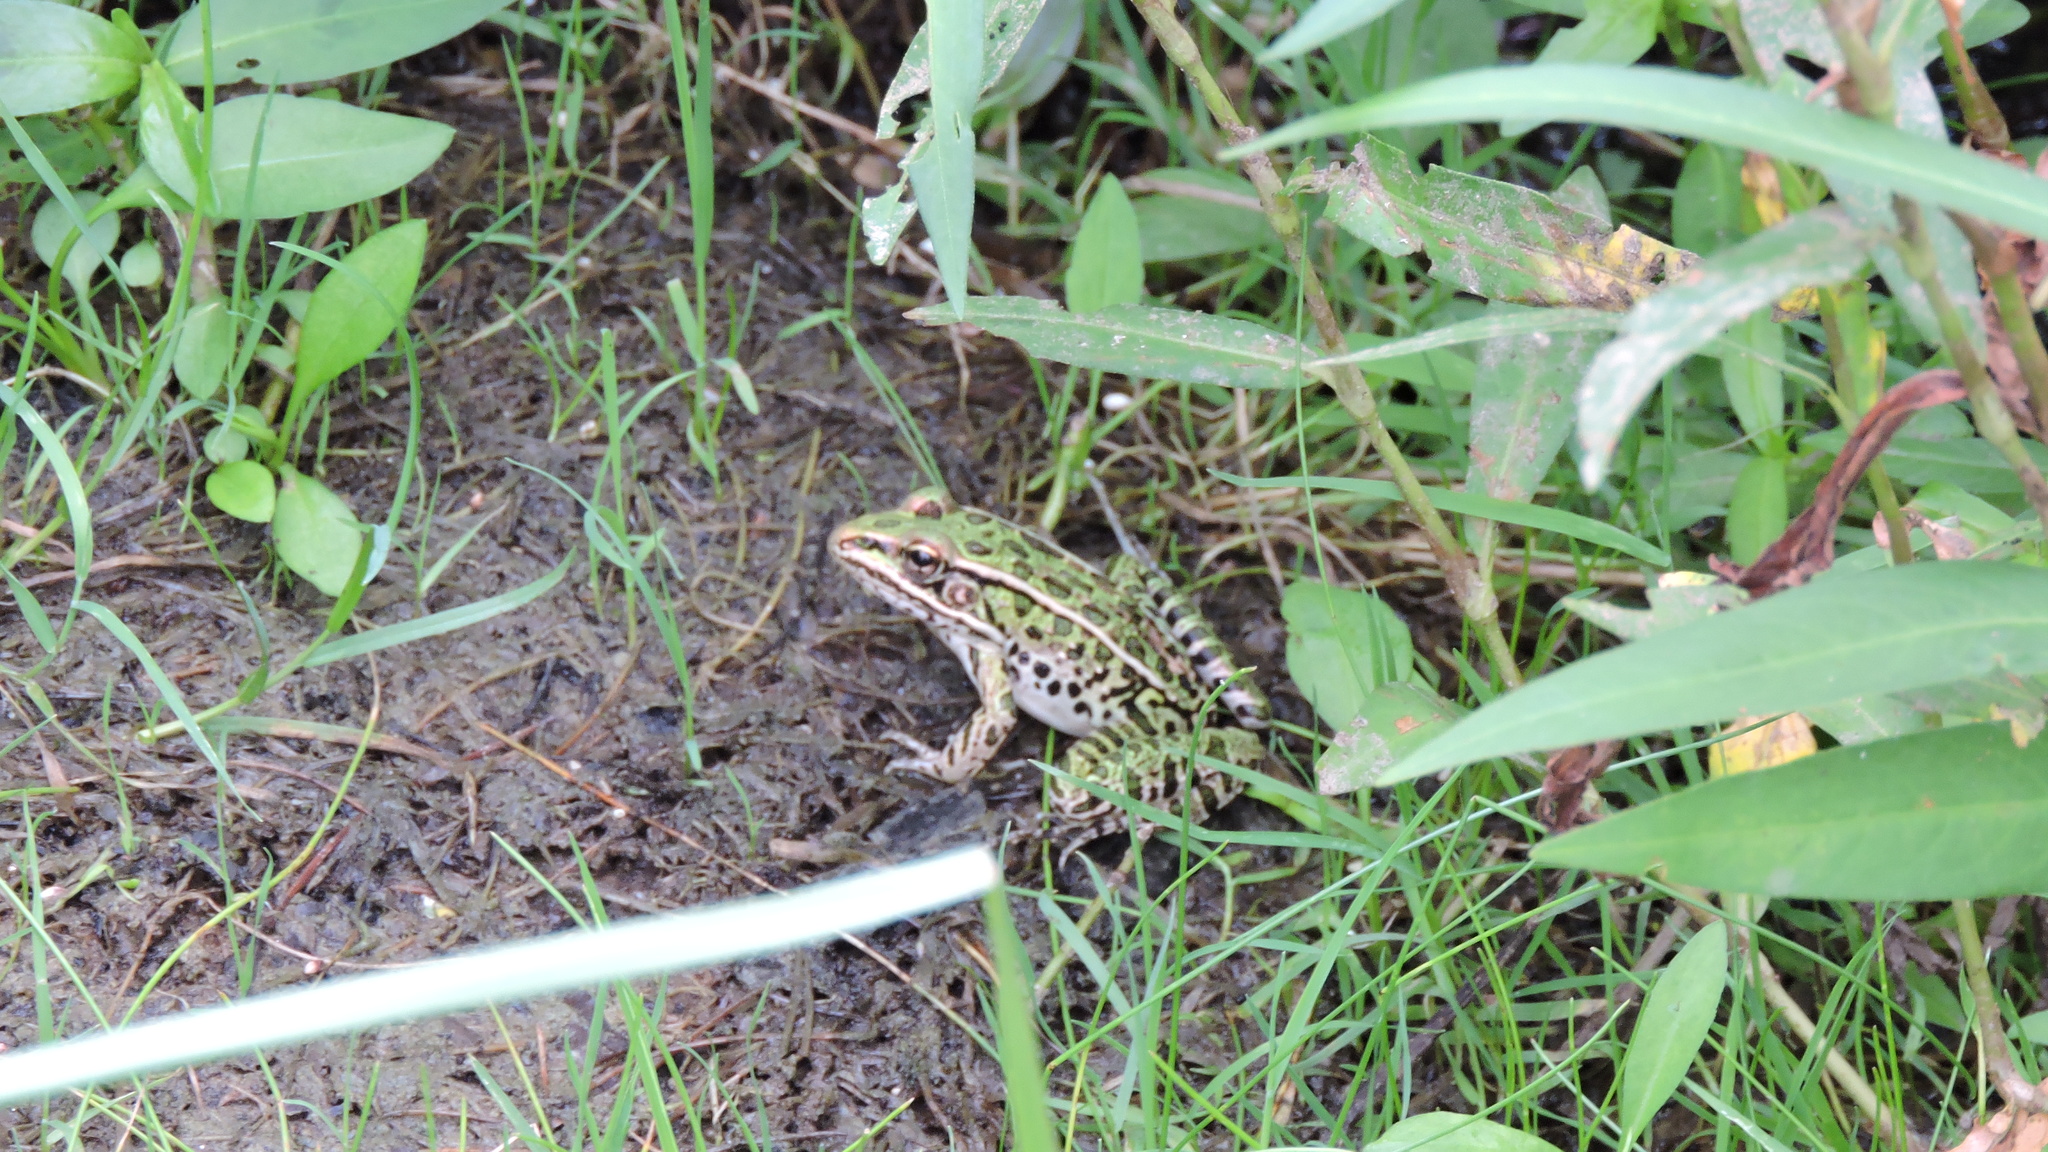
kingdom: Animalia
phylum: Chordata
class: Amphibia
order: Anura
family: Ranidae
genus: Lithobates
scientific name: Lithobates pipiens
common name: Northern leopard frog
